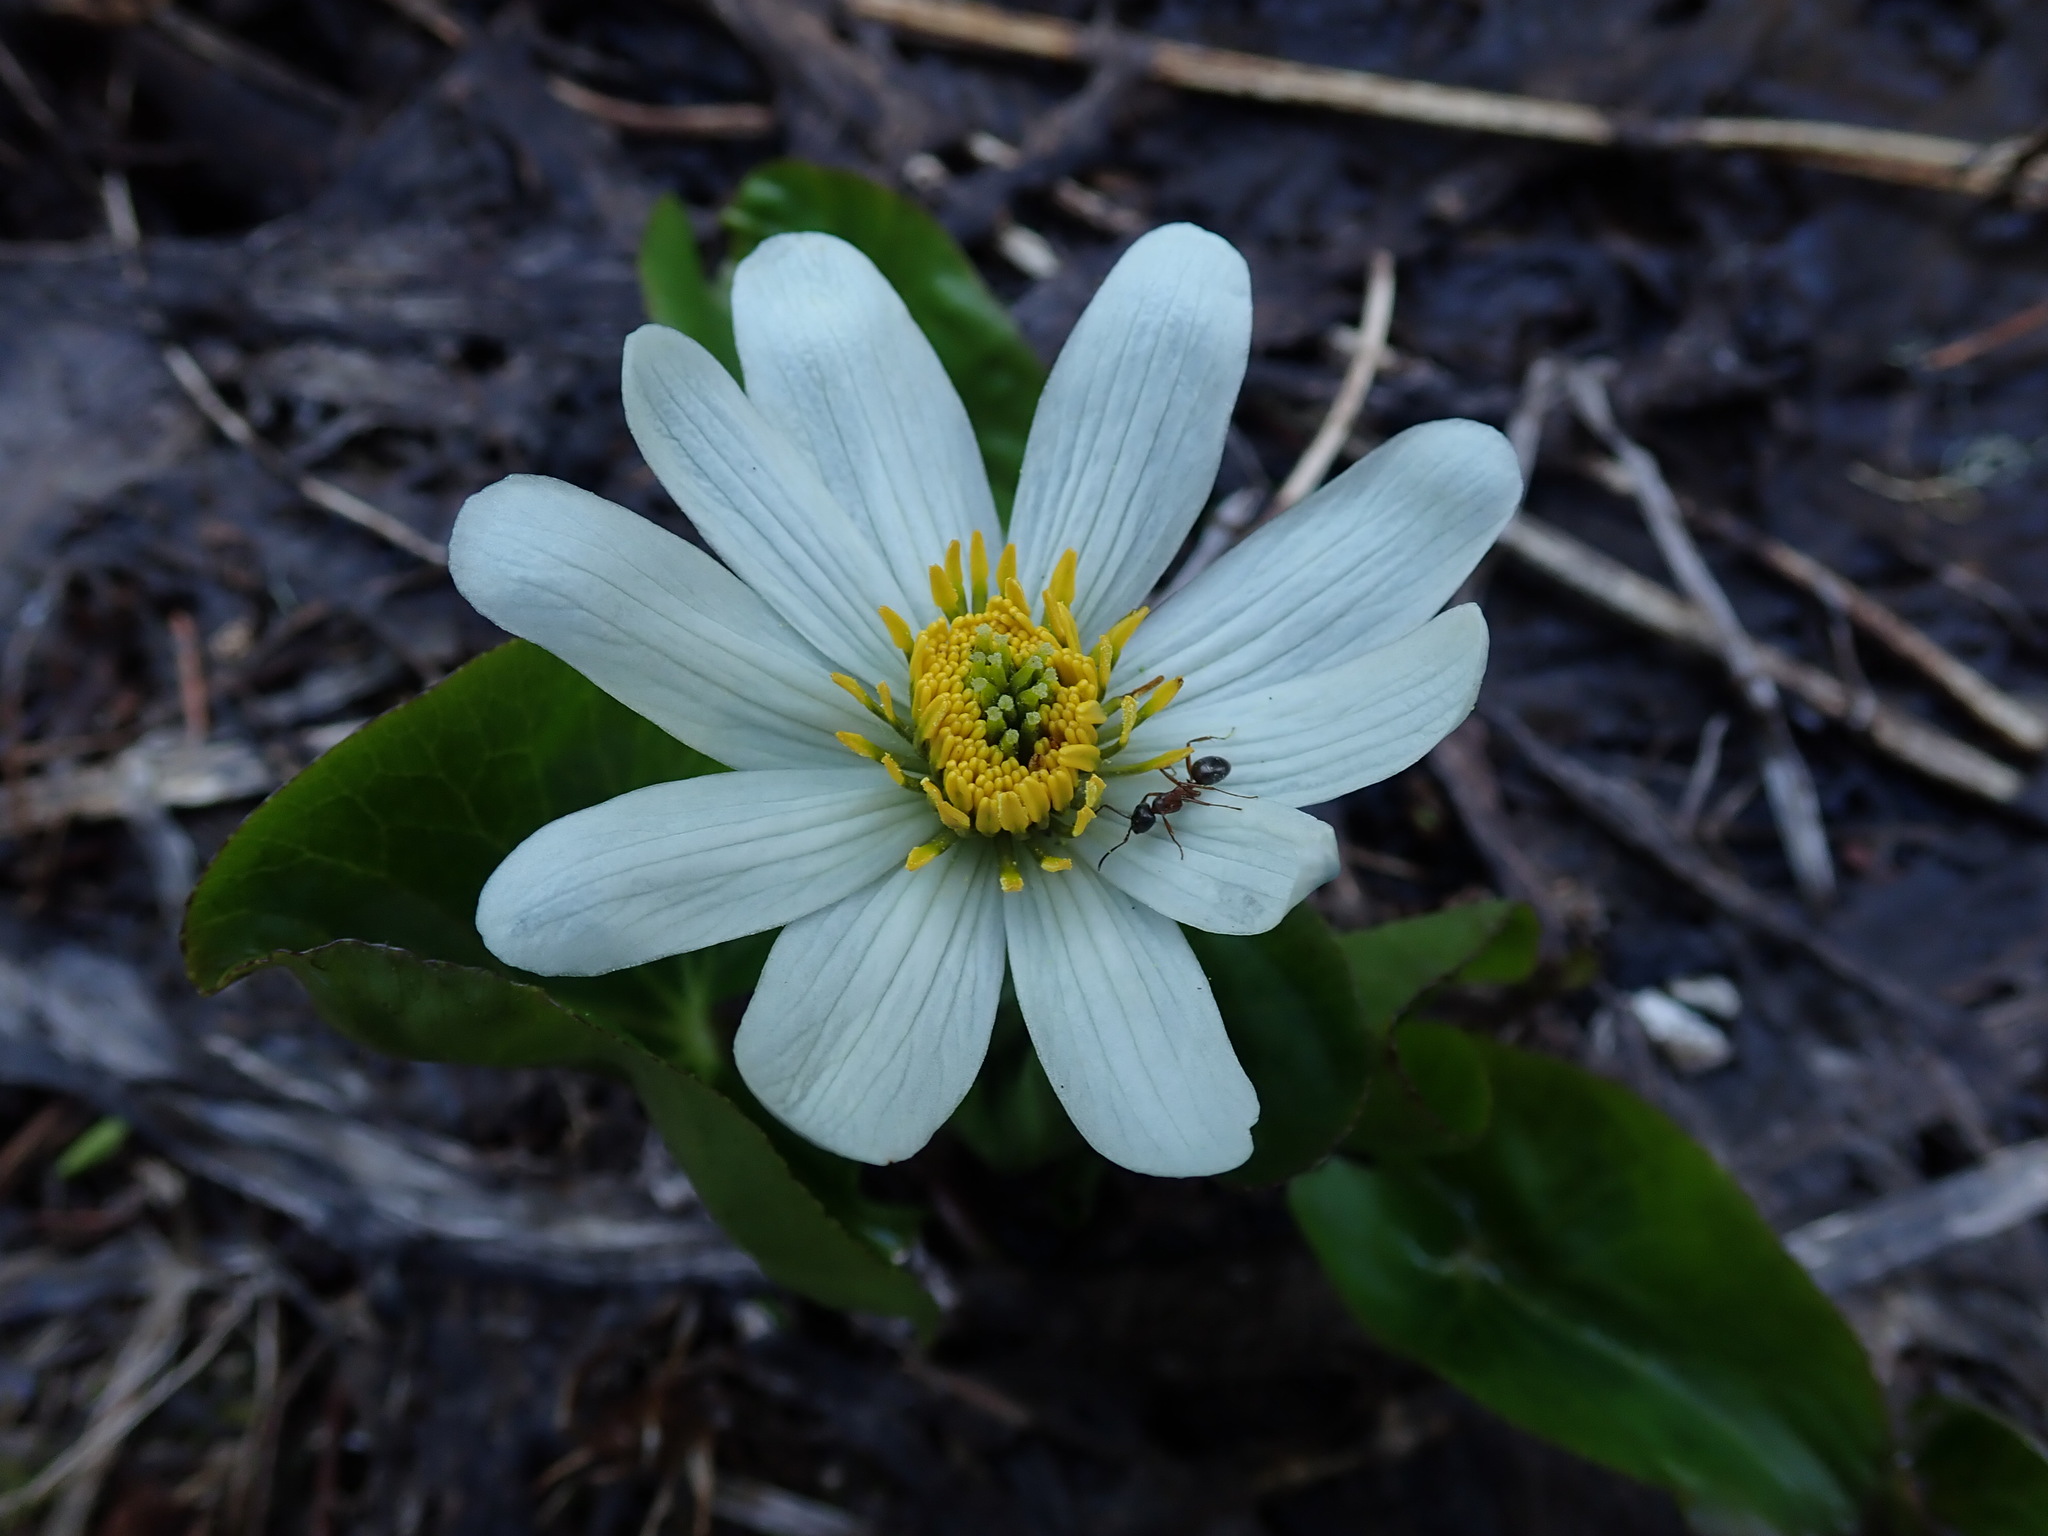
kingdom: Plantae
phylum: Tracheophyta
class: Magnoliopsida
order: Ranunculales
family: Ranunculaceae
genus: Caltha
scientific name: Caltha leptosepala
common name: Elkslip
